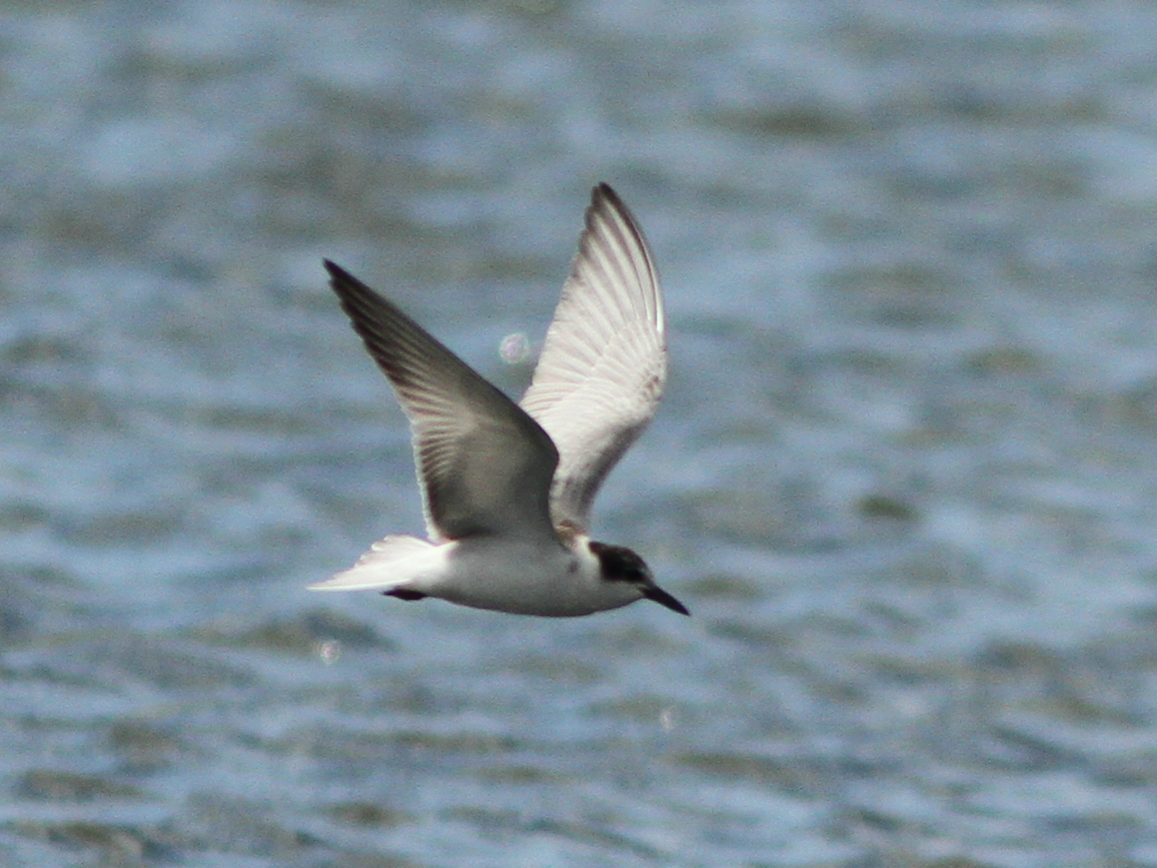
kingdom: Animalia
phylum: Chordata
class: Aves
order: Charadriiformes
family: Laridae
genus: Chlidonias
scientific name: Chlidonias hybrida
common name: Whiskered tern
